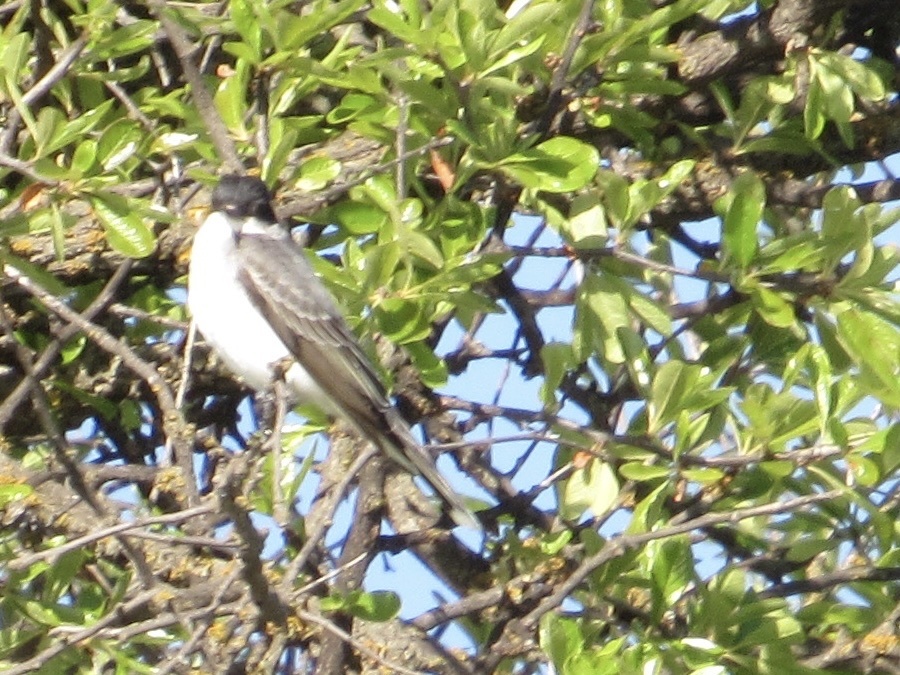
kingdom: Animalia
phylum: Chordata
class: Aves
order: Passeriformes
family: Tyrannidae
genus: Tyrannus
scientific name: Tyrannus tyrannus
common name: Eastern kingbird
